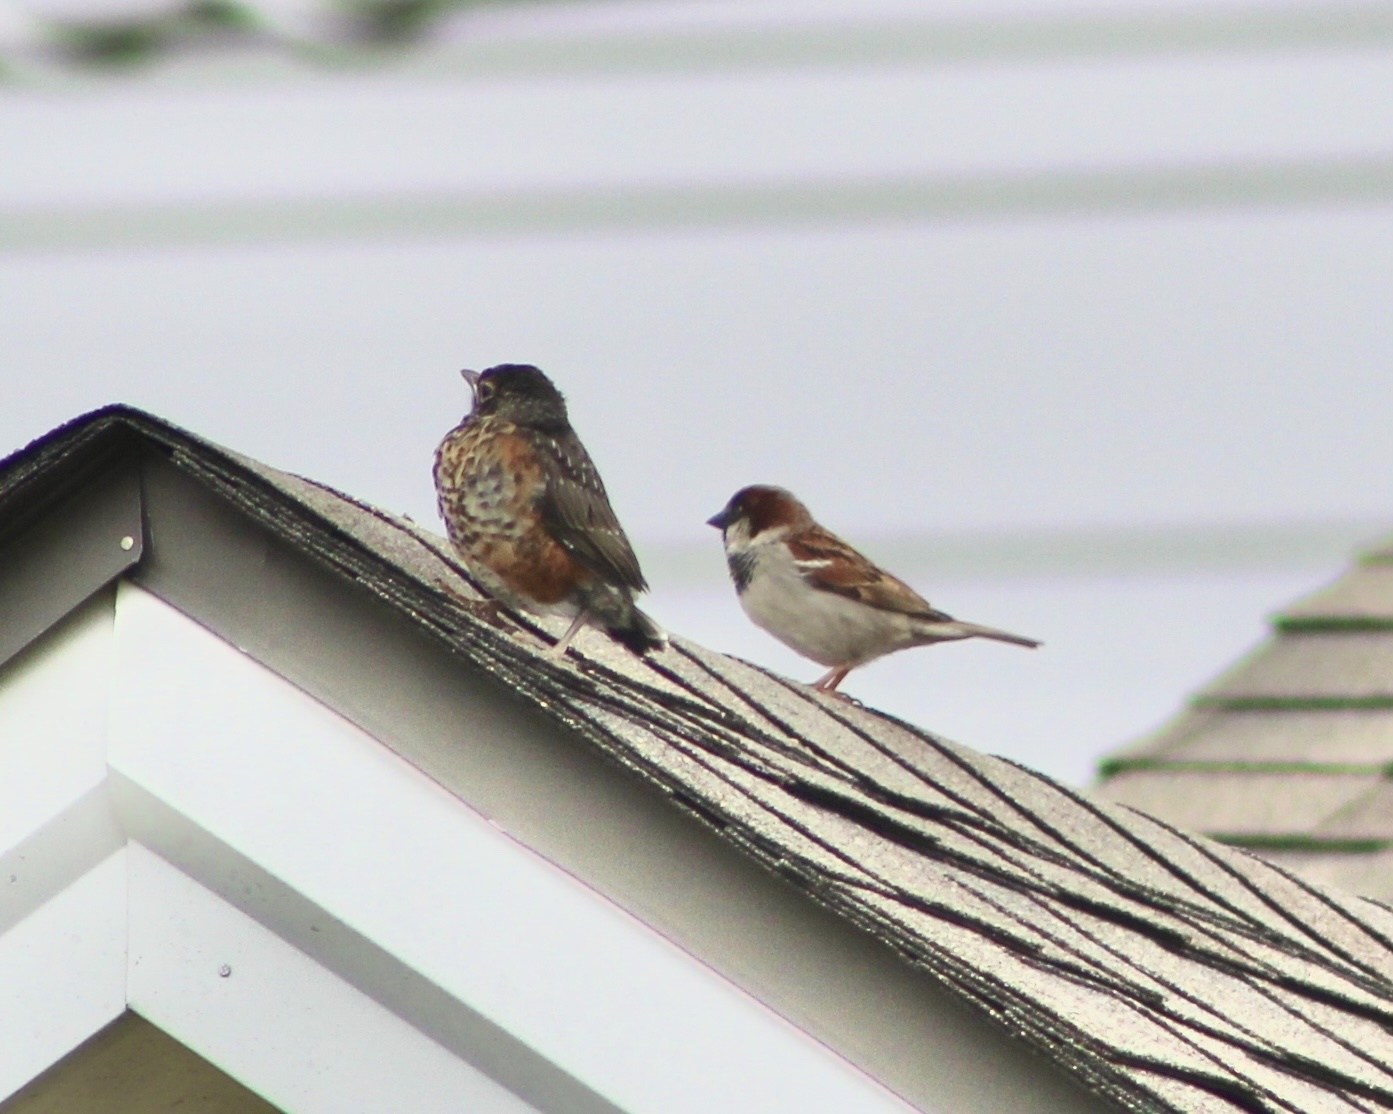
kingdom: Animalia
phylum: Chordata
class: Aves
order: Passeriformes
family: Passeridae
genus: Passer
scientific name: Passer domesticus
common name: House sparrow
